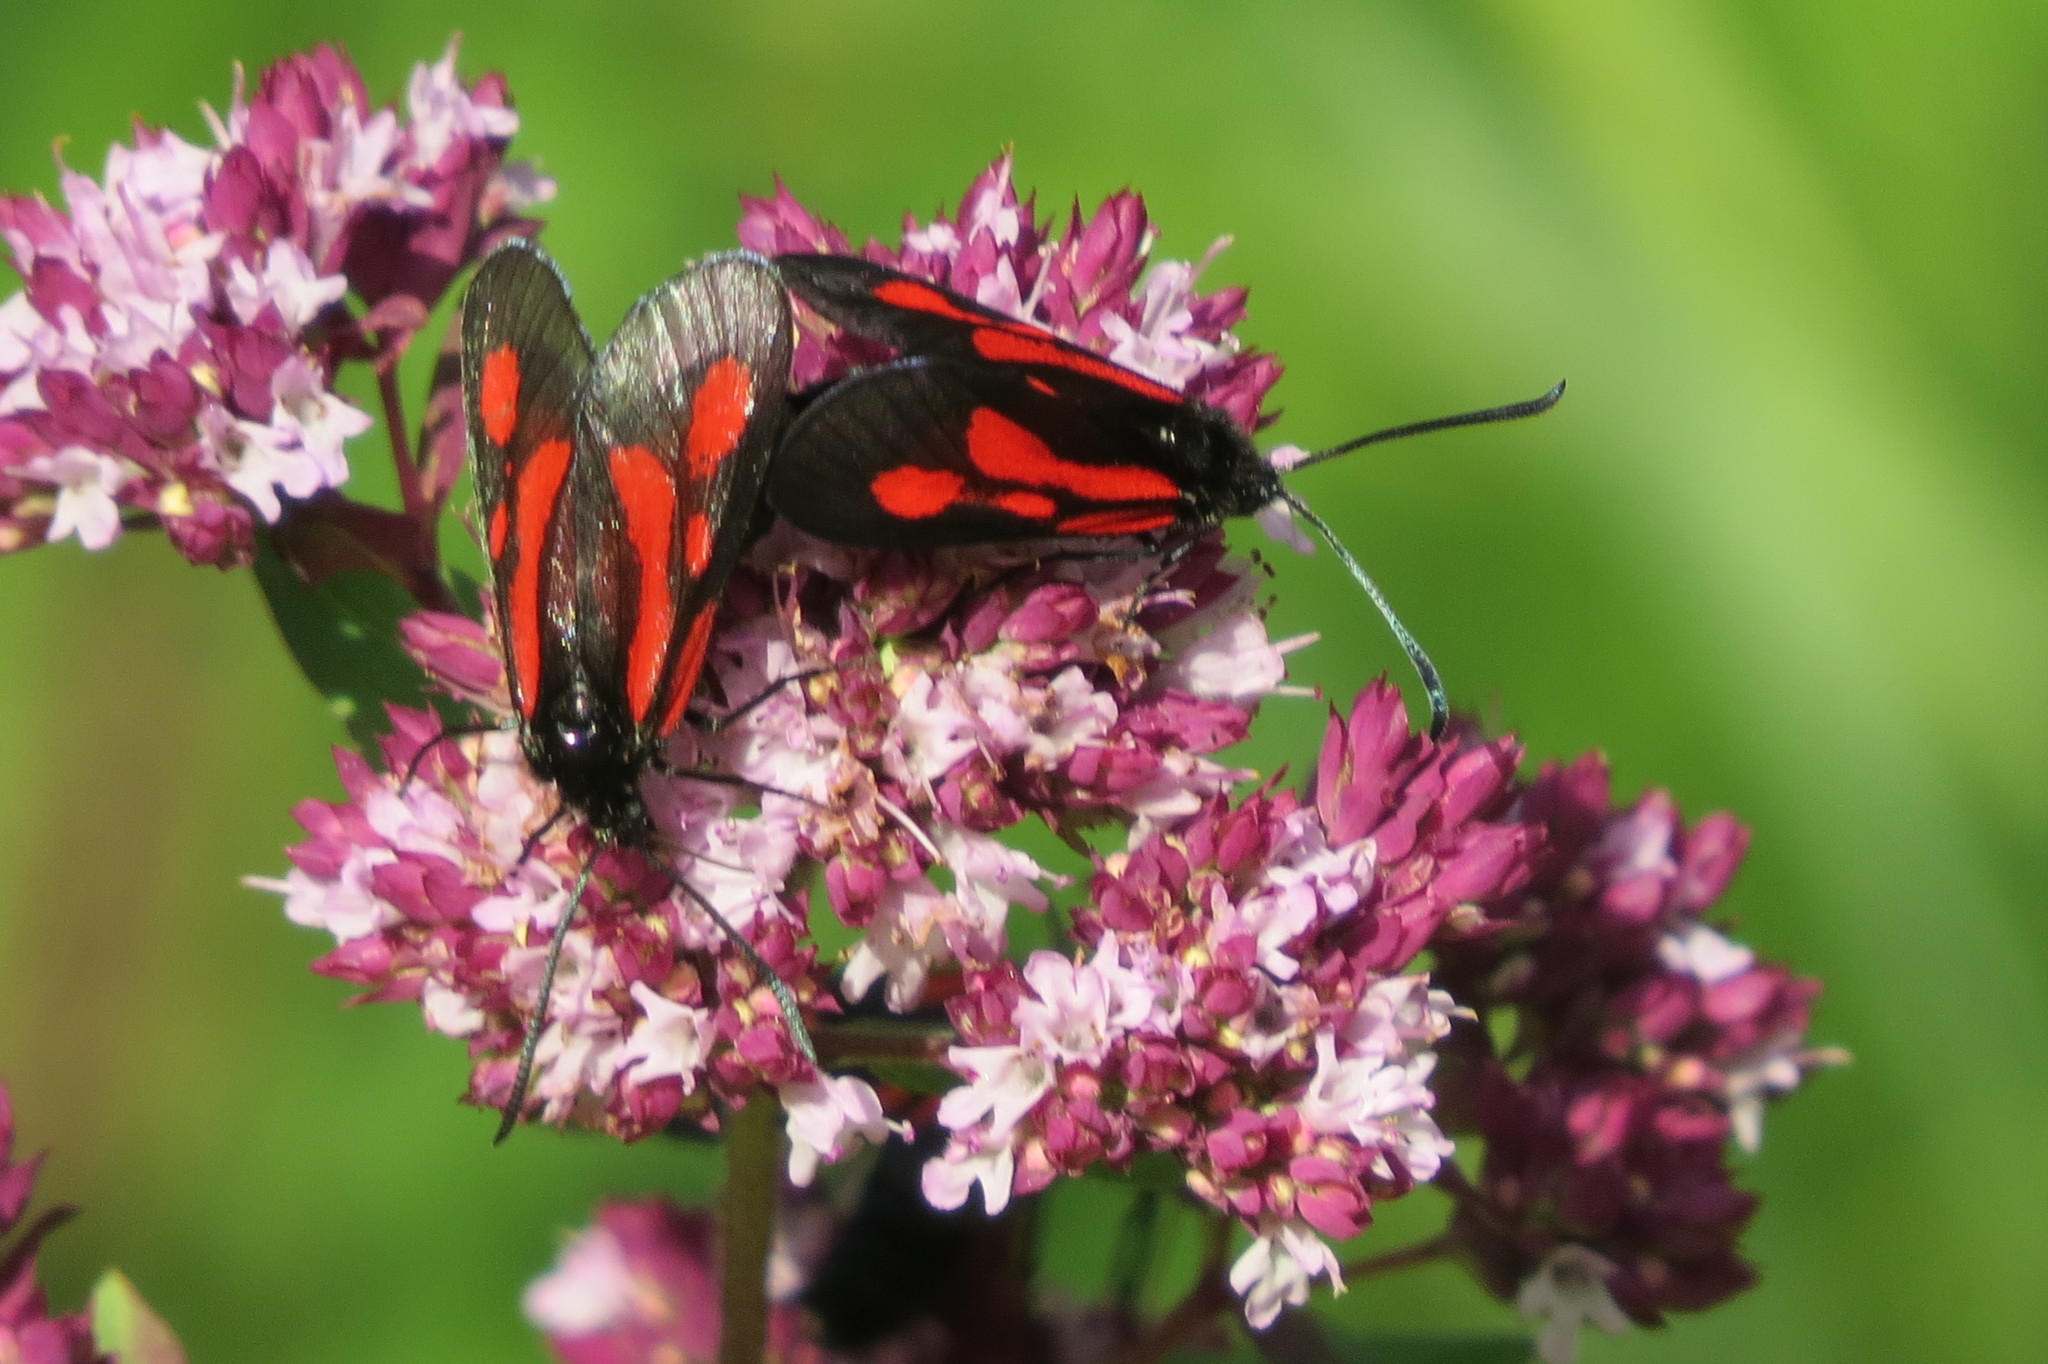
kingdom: Animalia
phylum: Arthropoda
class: Insecta
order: Lepidoptera
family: Zygaenidae
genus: Zygaena
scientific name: Zygaena romeo
